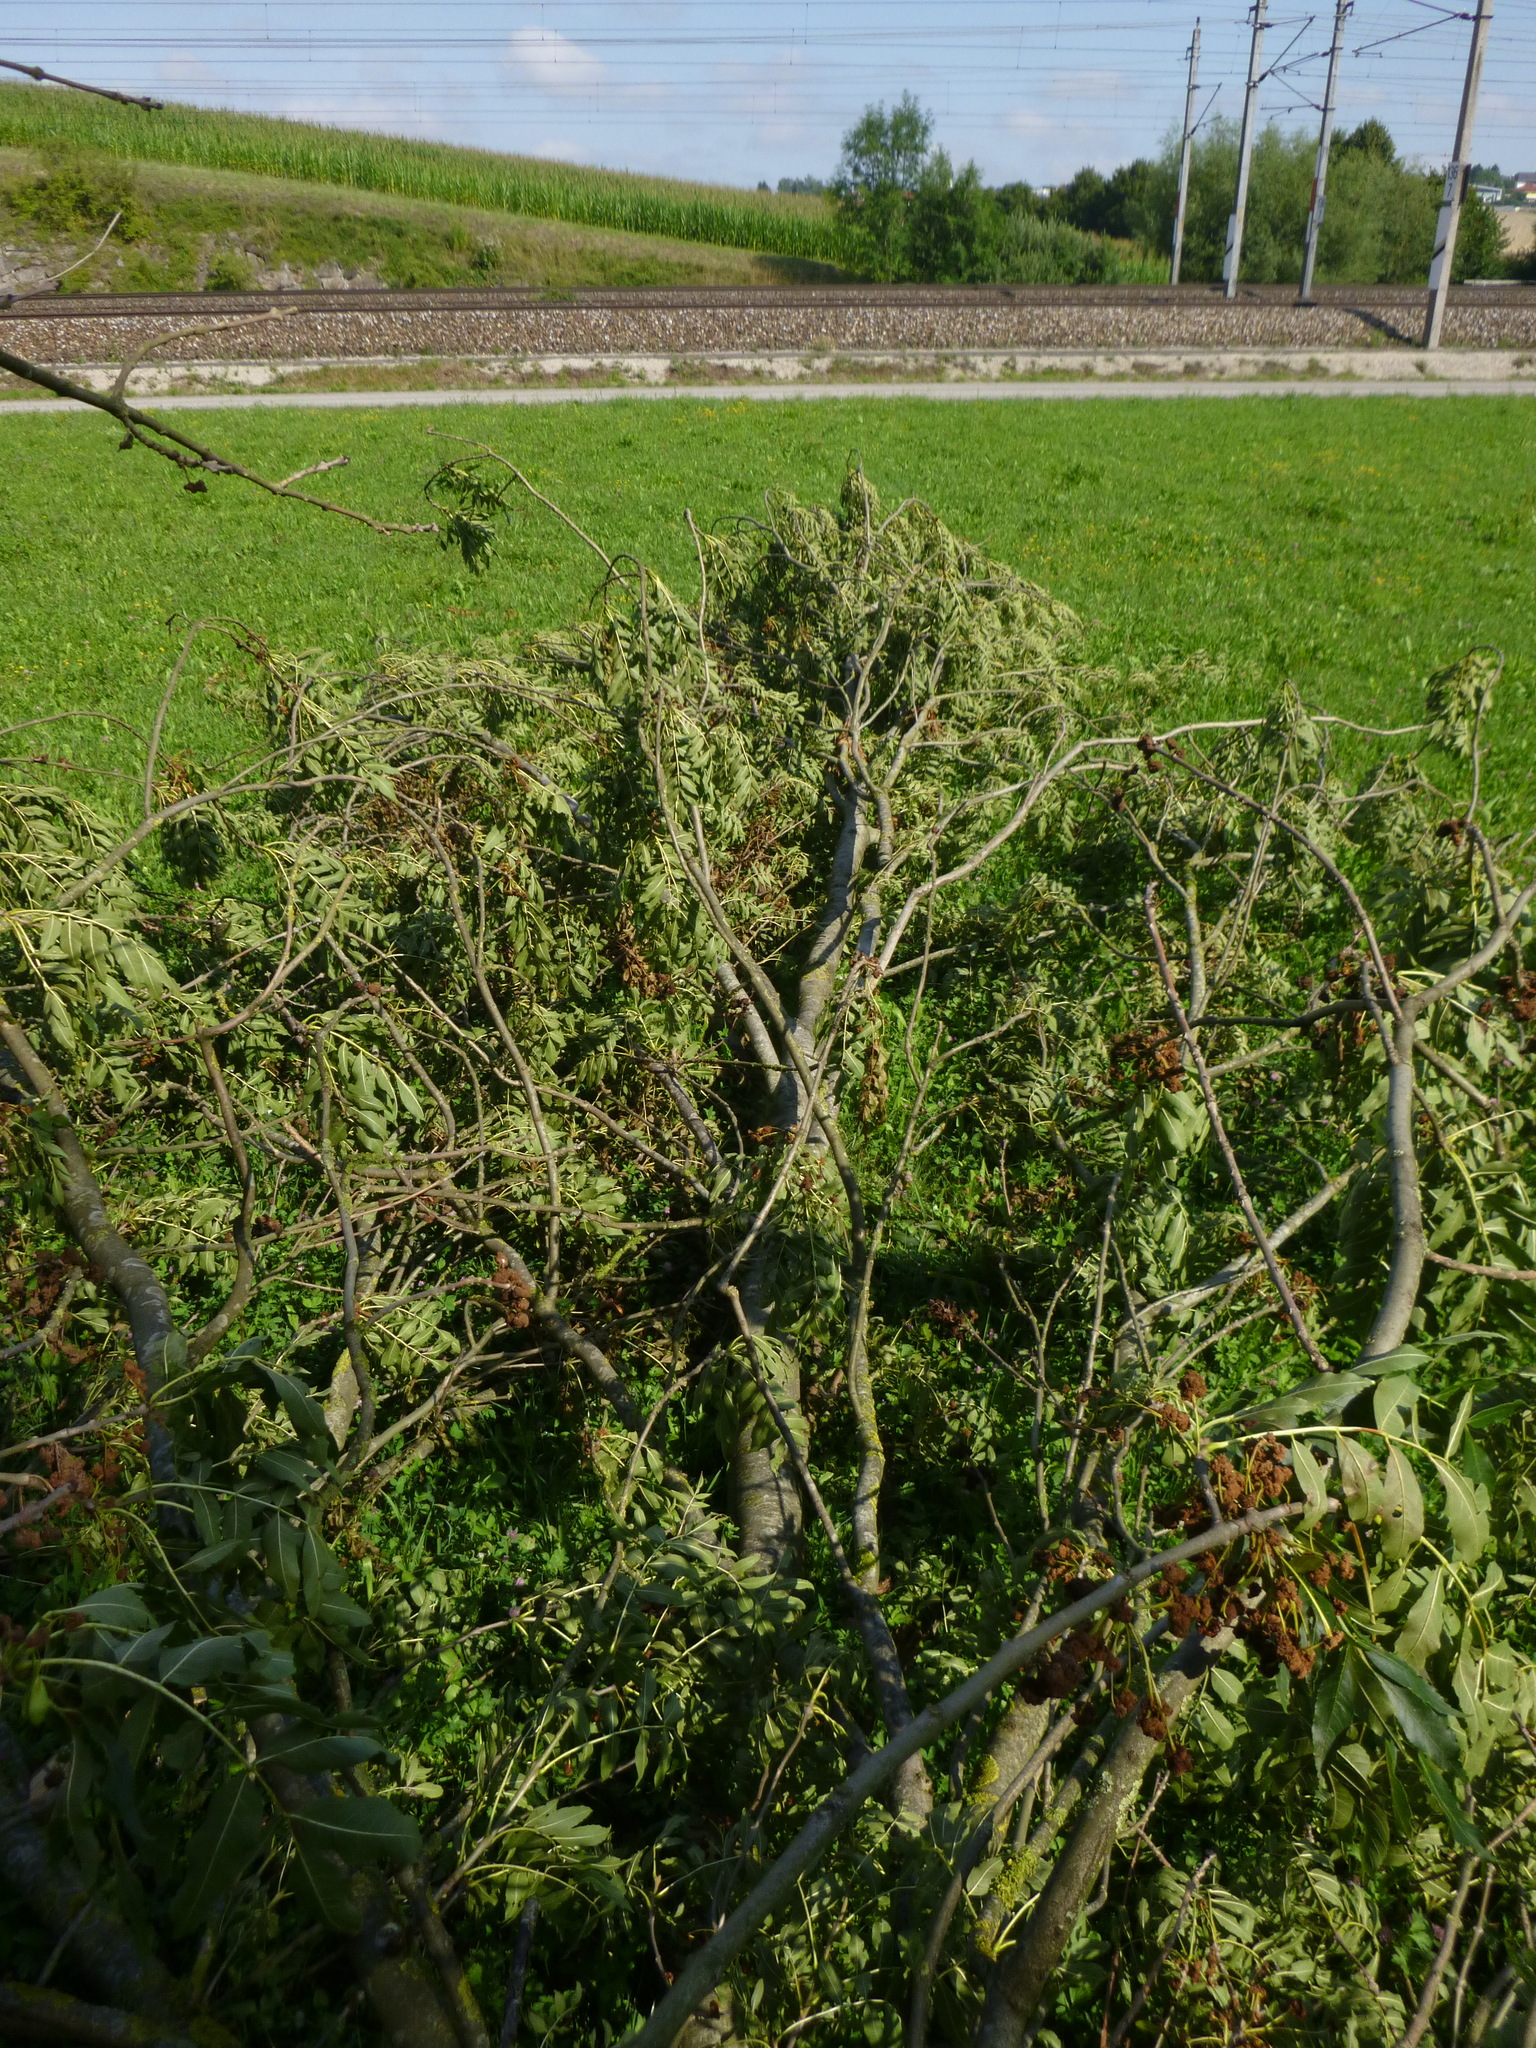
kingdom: Animalia
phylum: Arthropoda
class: Arachnida
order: Trombidiformes
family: Eriophyidae
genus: Aceria
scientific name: Aceria fraxinivora
